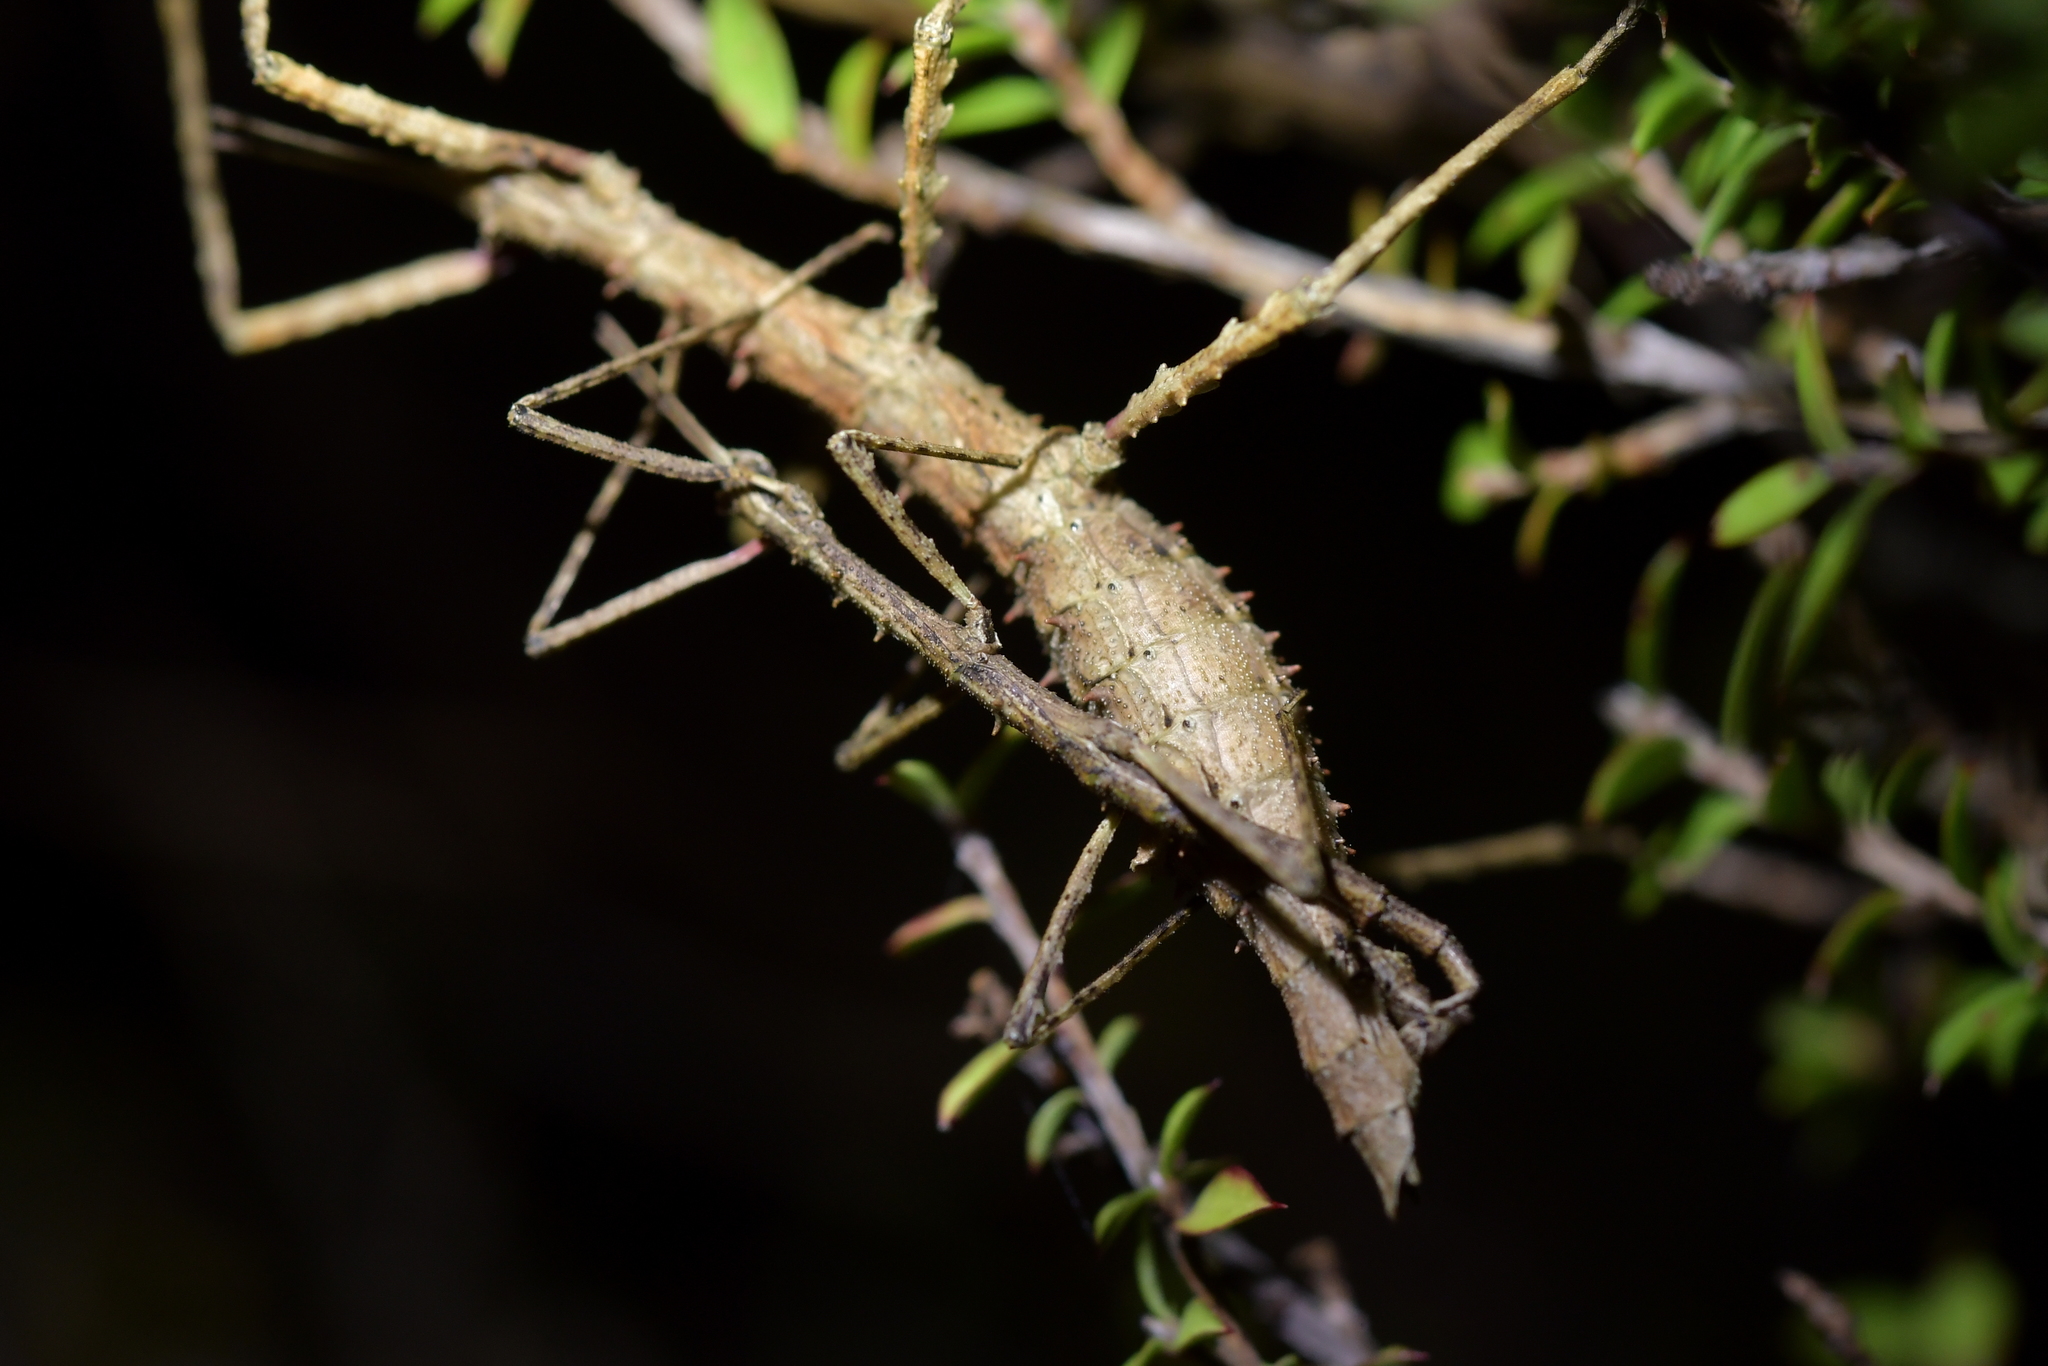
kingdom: Animalia
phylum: Arthropoda
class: Insecta
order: Phasmida
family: Phasmatidae
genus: Micrarchus
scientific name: Micrarchus hystriculeus
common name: The lesser spiny stick insect
